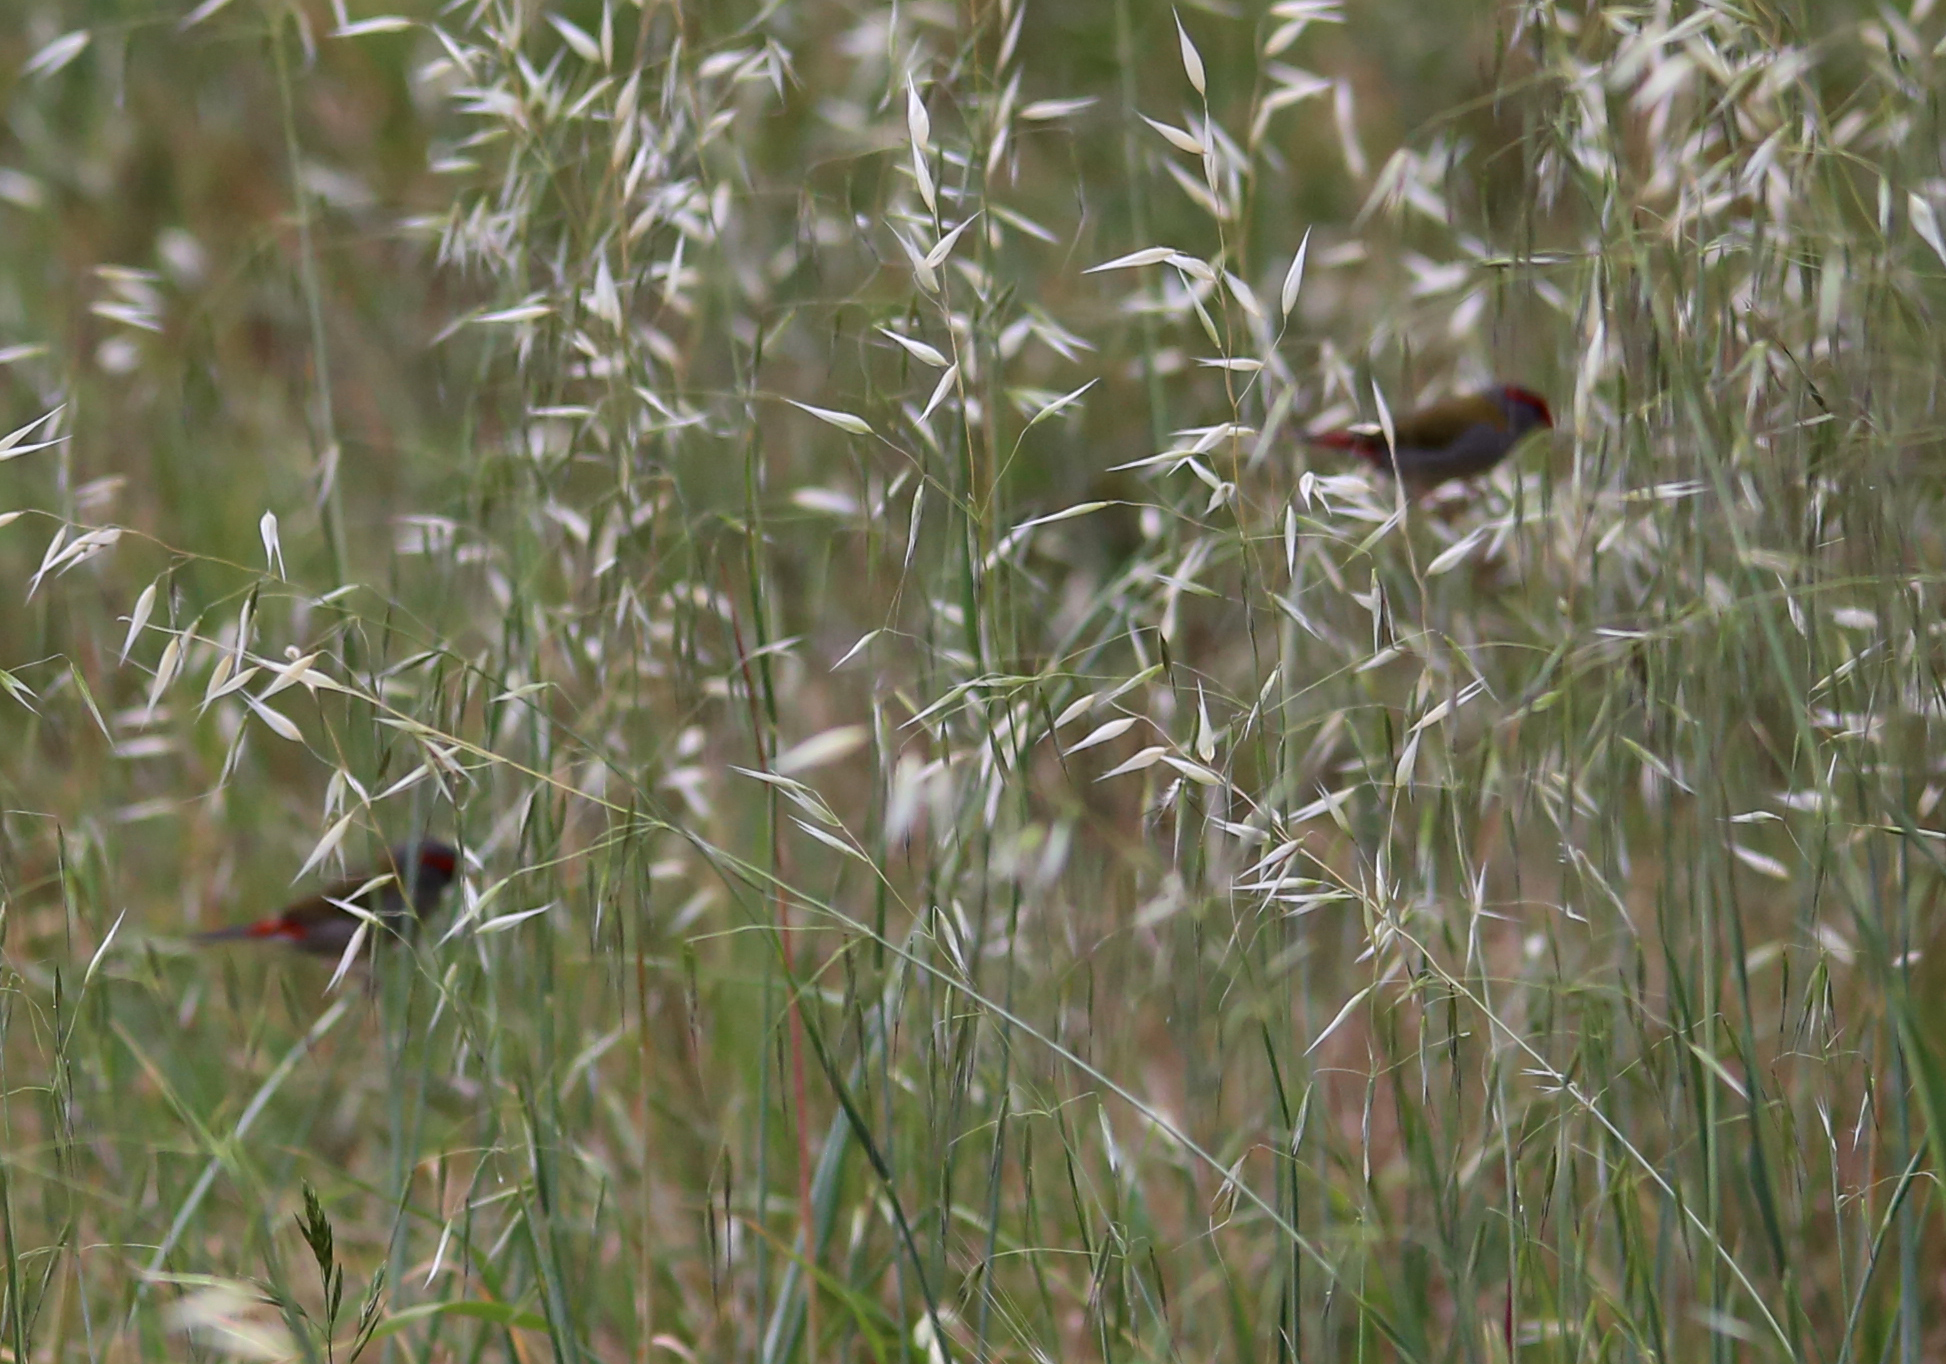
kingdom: Animalia
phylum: Chordata
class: Aves
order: Passeriformes
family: Estrildidae
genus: Neochmia
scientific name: Neochmia temporalis
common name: Red-browed finch
